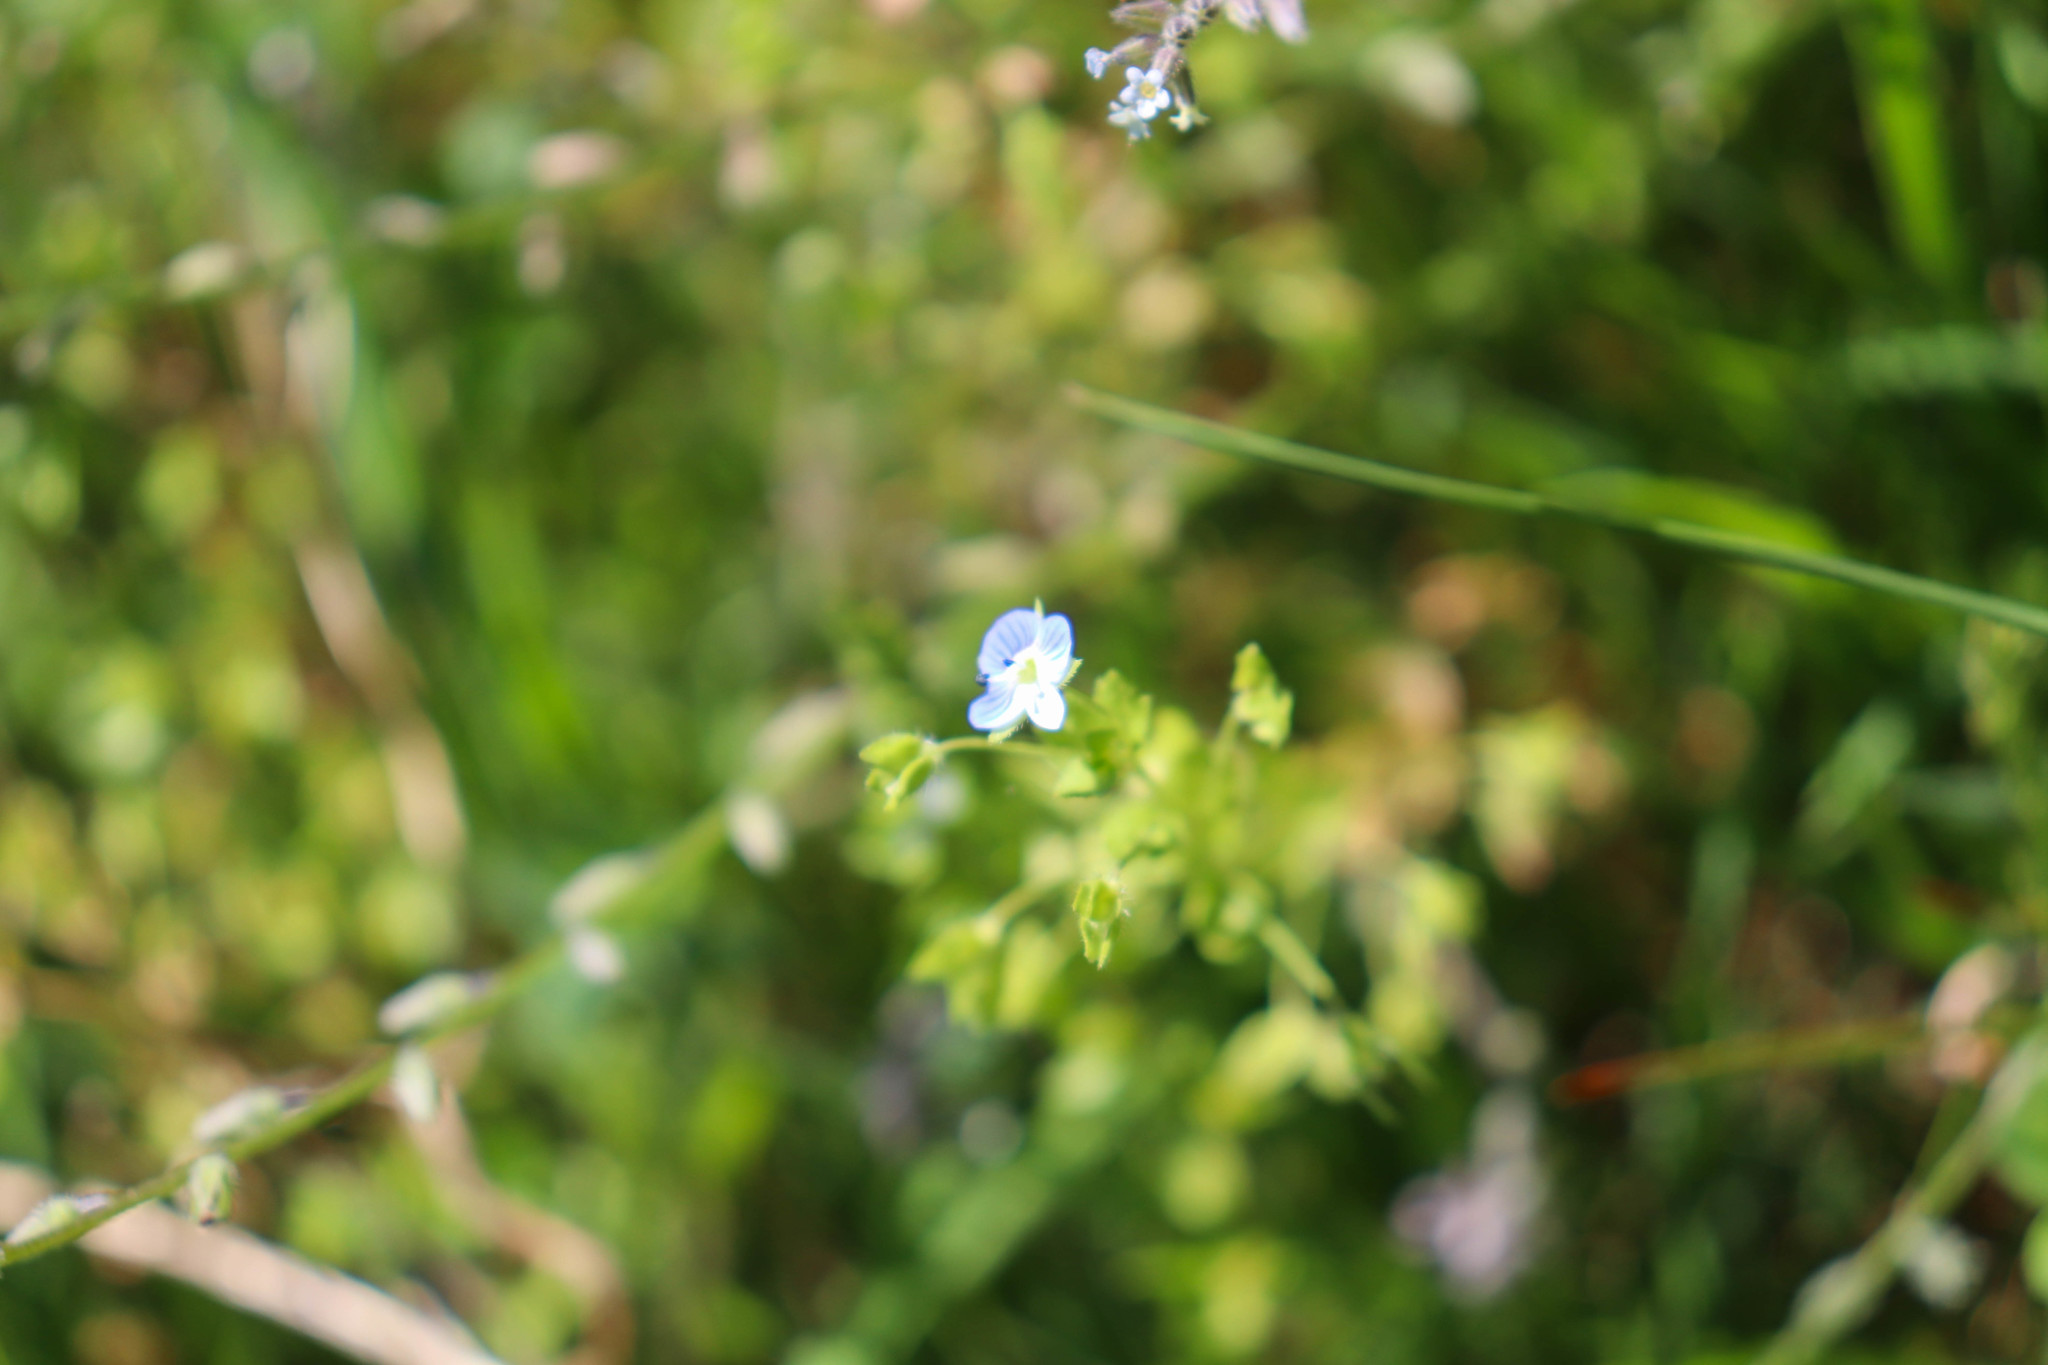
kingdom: Plantae
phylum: Tracheophyta
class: Magnoliopsida
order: Lamiales
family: Plantaginaceae
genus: Veronica
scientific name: Veronica persica
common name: Common field-speedwell
